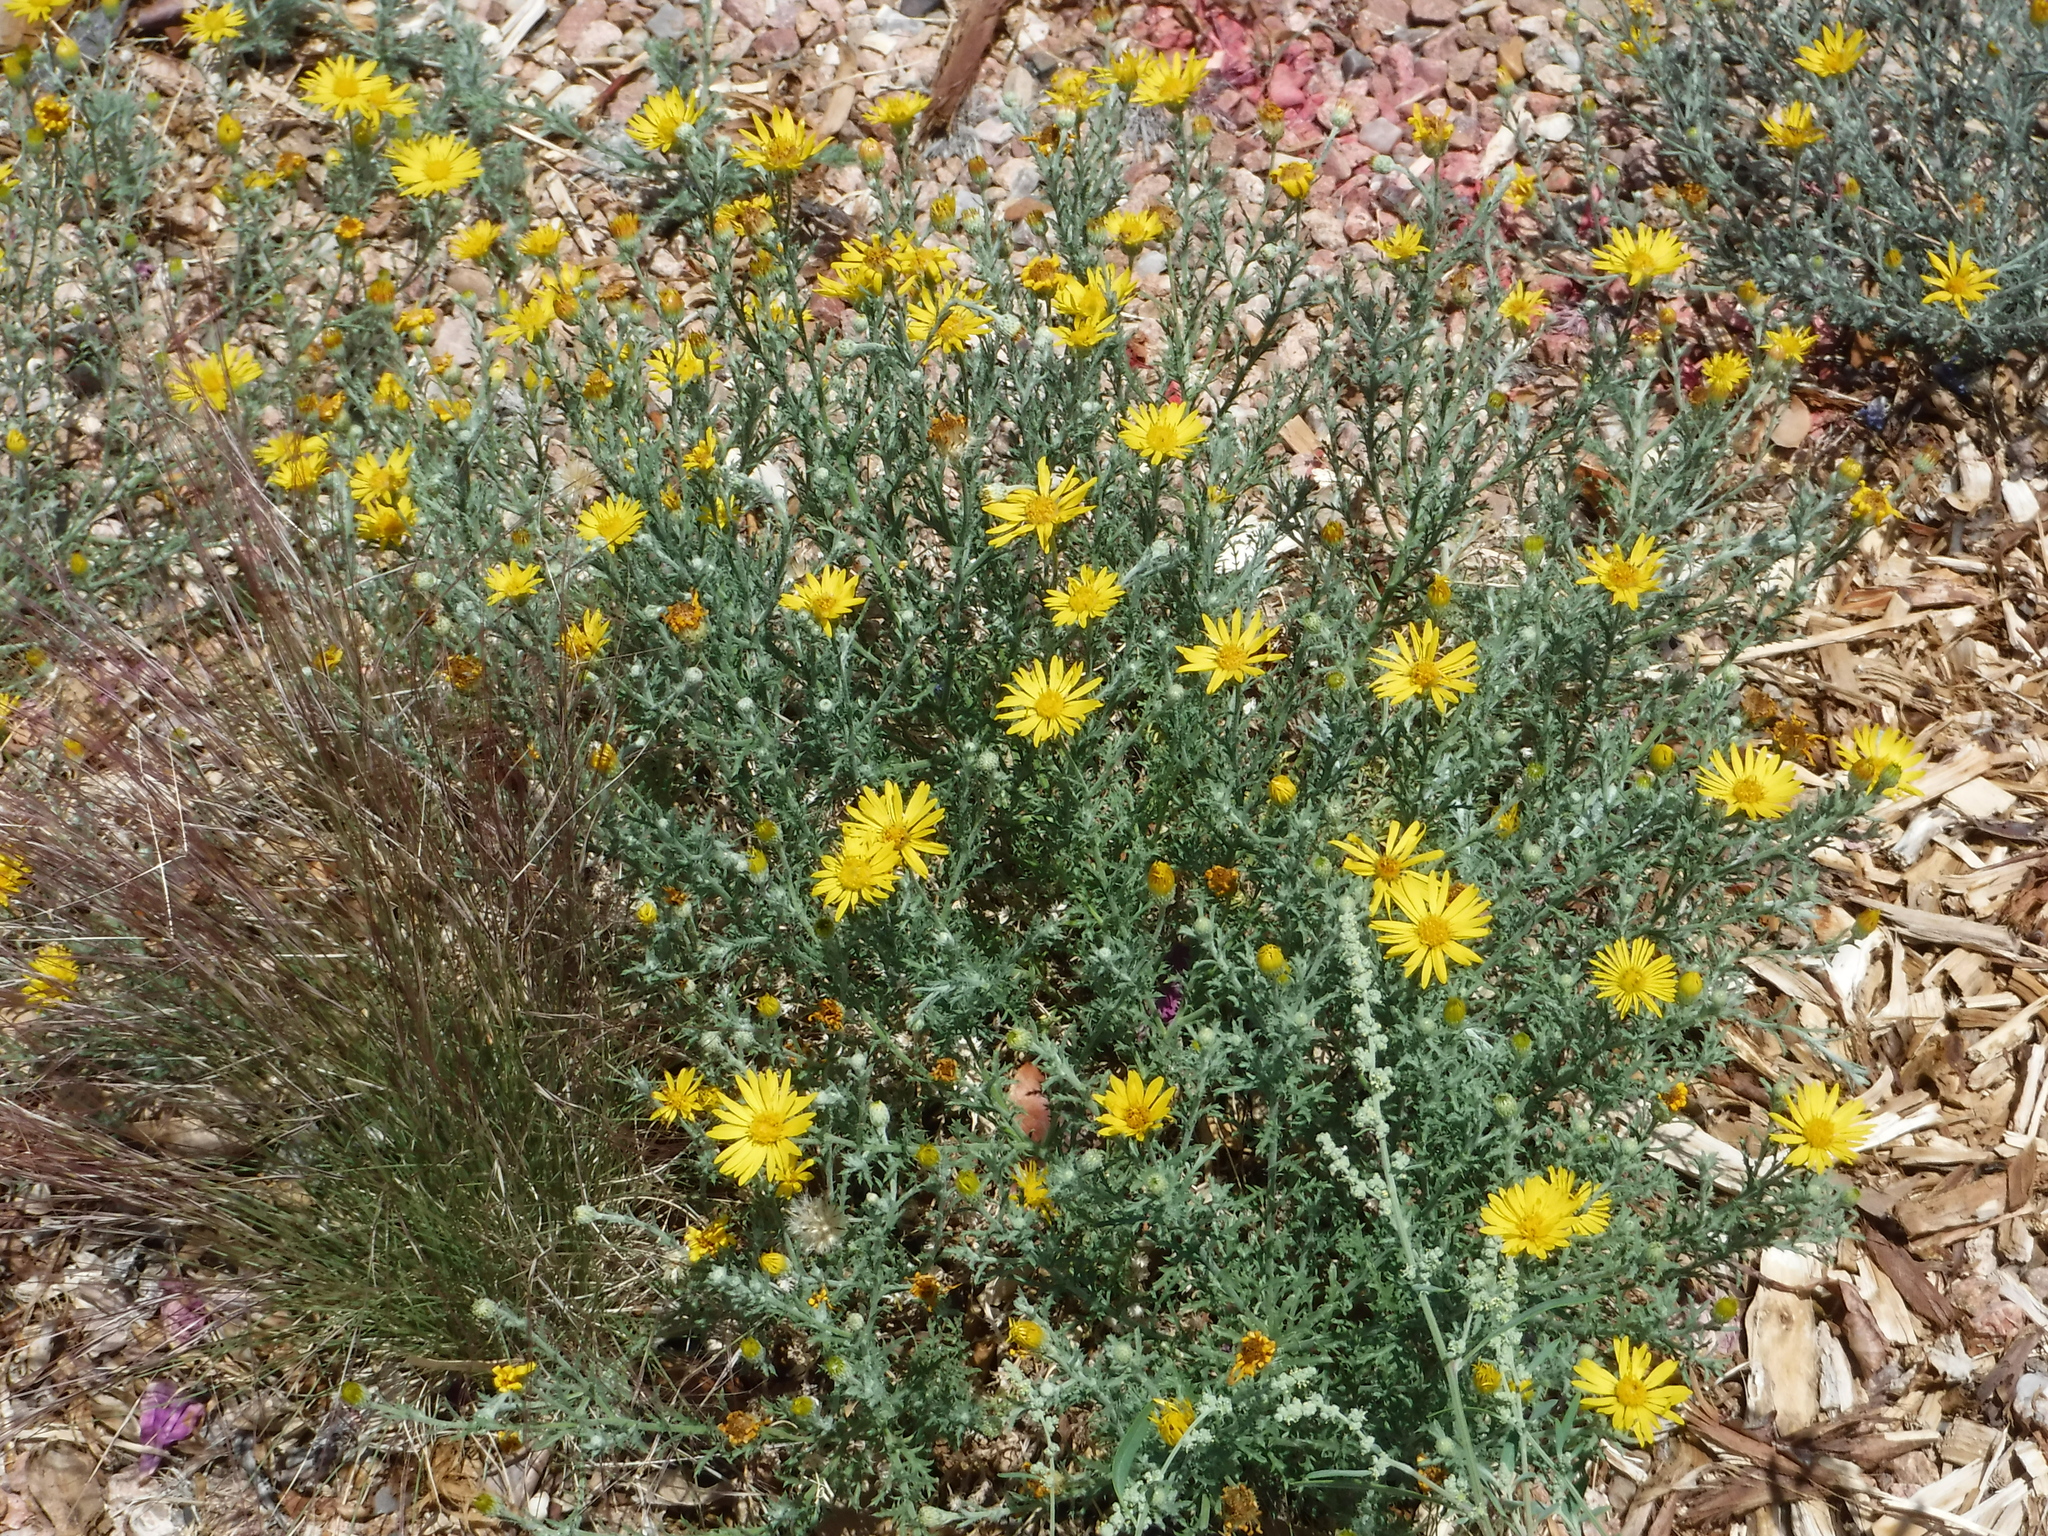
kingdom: Plantae
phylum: Tracheophyta
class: Magnoliopsida
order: Asterales
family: Asteraceae
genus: Xanthisma
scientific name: Xanthisma spinulosum
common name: Spiny goldenweed
